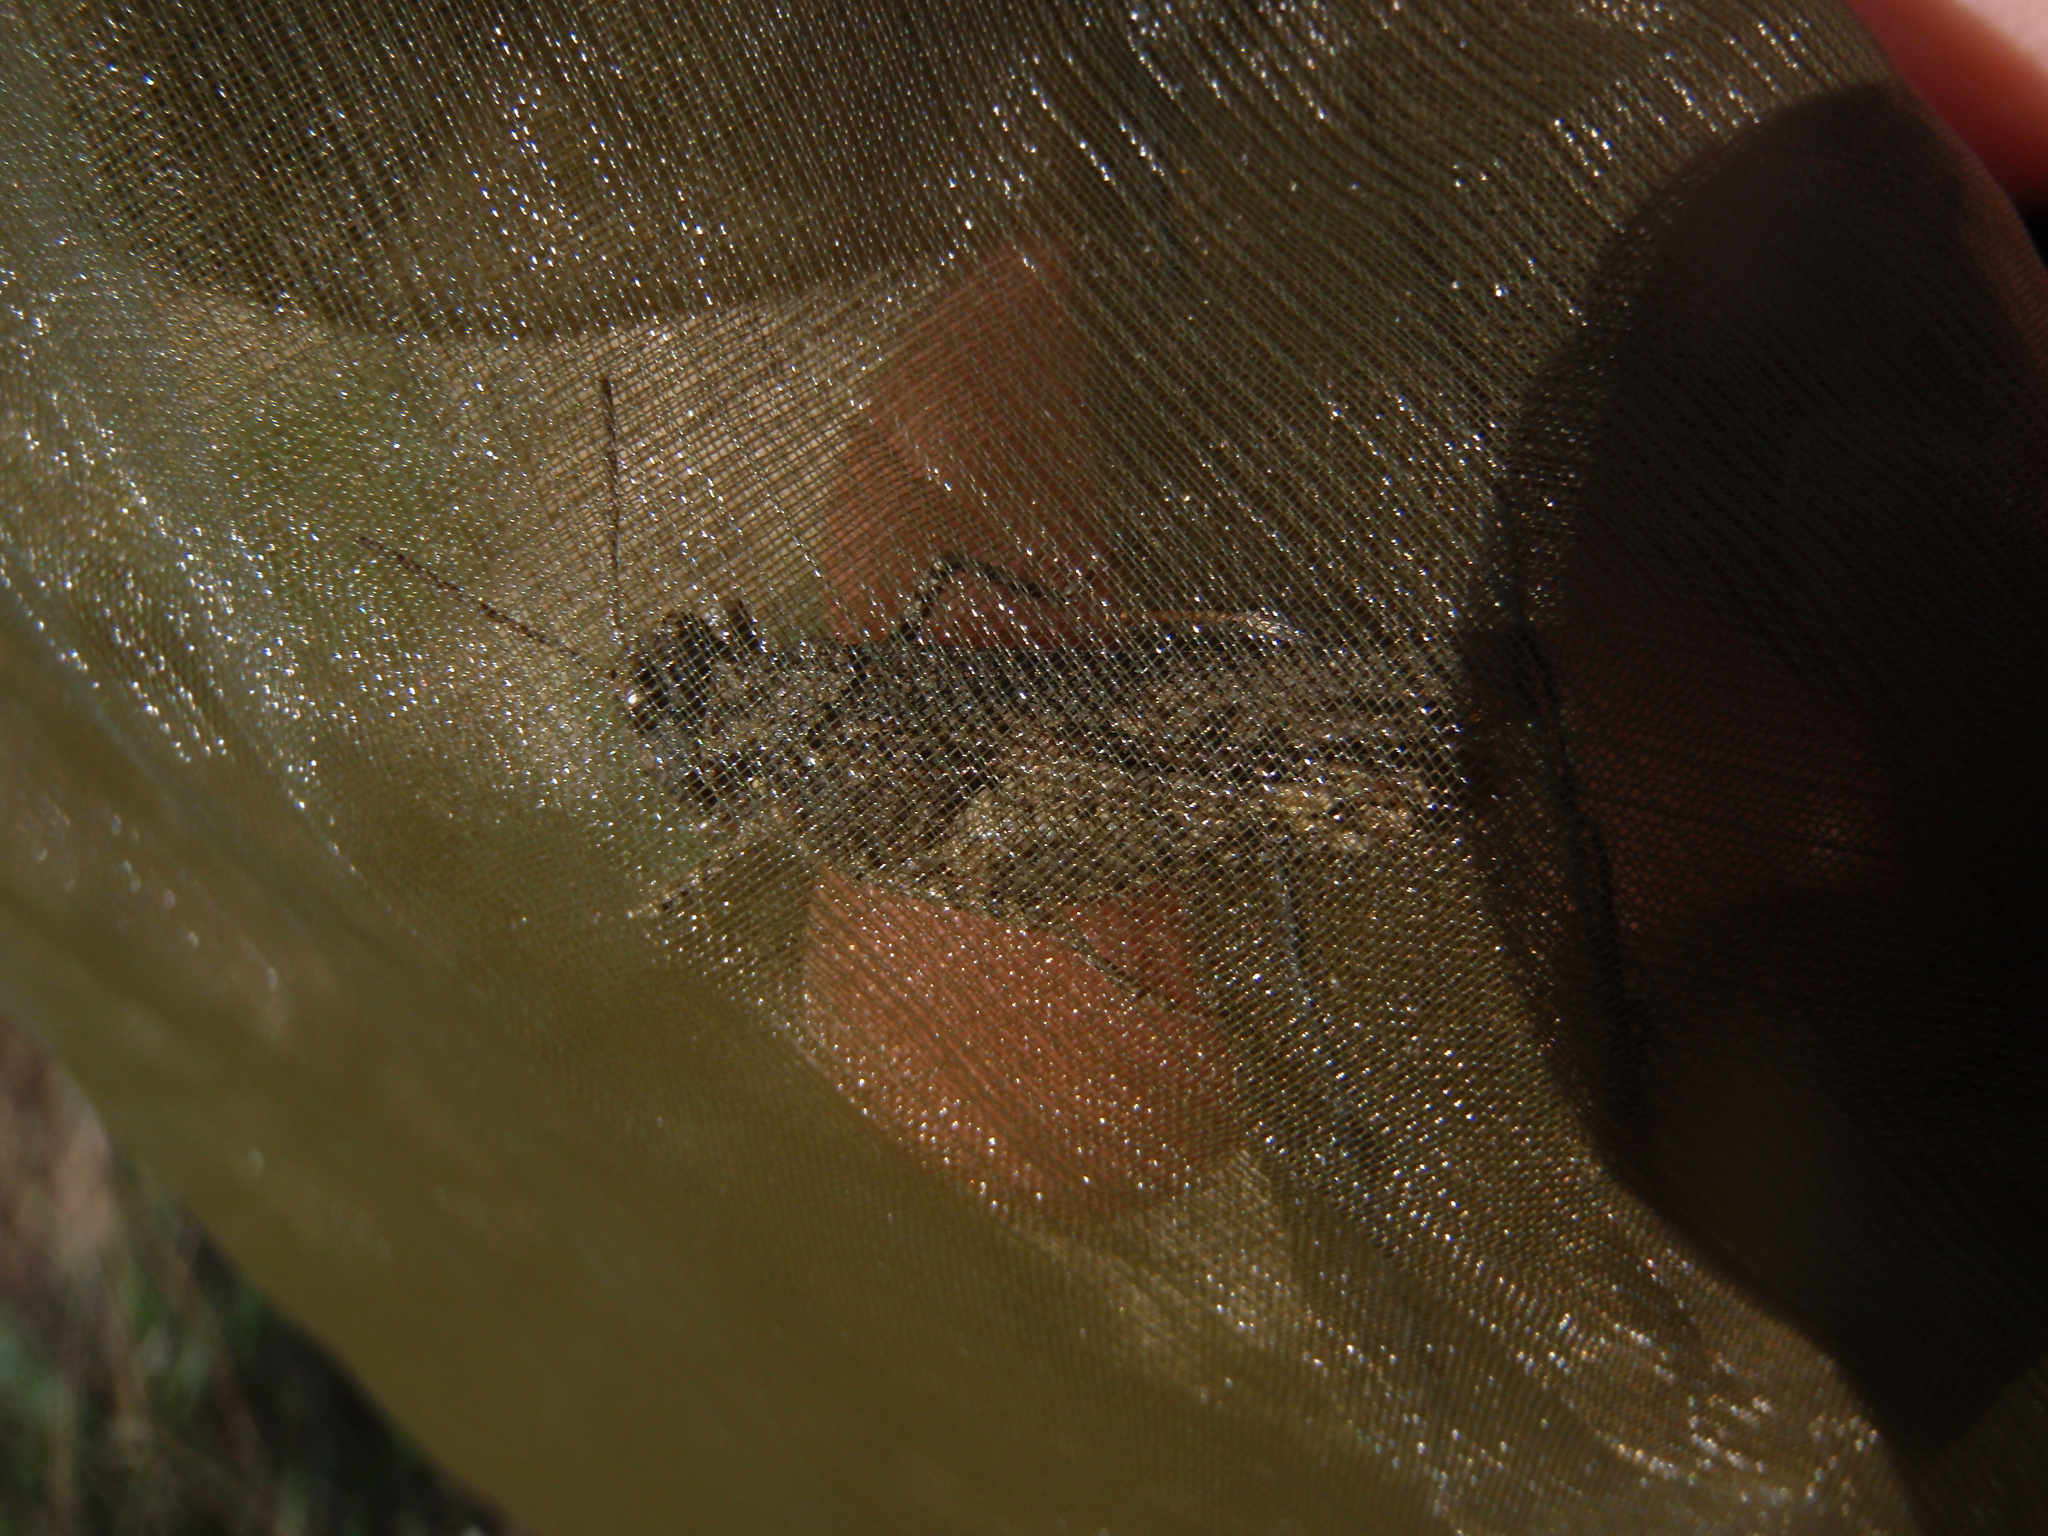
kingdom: Animalia
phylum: Arthropoda
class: Insecta
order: Orthoptera
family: Acrididae
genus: Acrotylus
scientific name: Acrotylus fischeri
